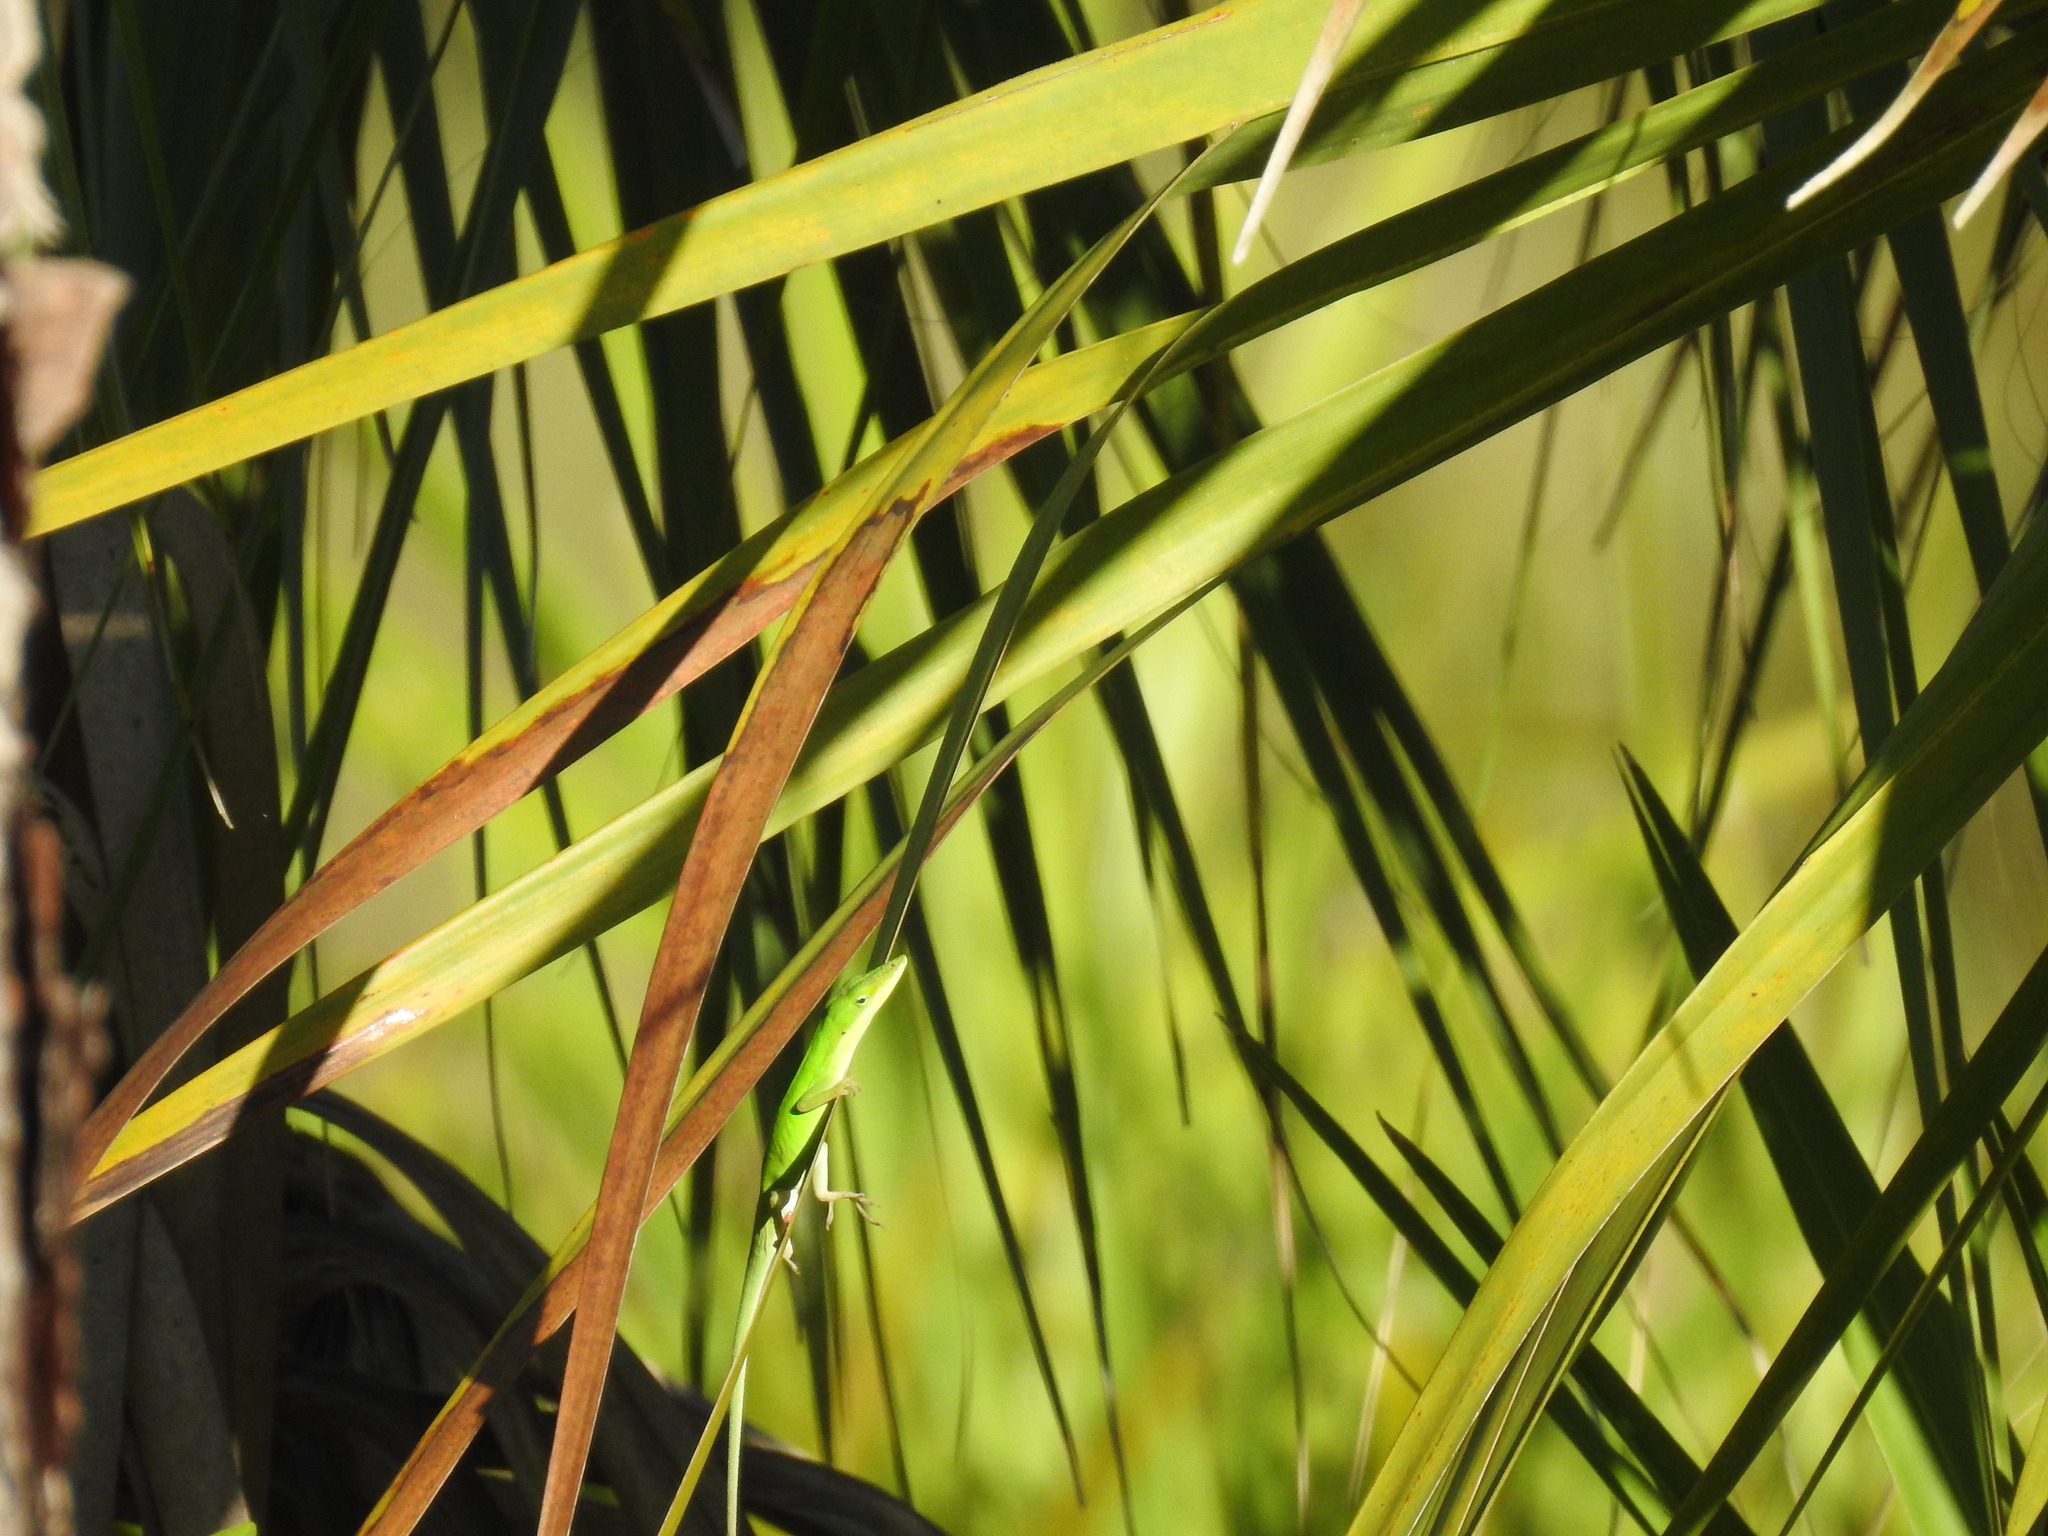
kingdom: Animalia
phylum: Chordata
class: Squamata
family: Dactyloidae
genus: Anolis
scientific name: Anolis carolinensis
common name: Green anole
